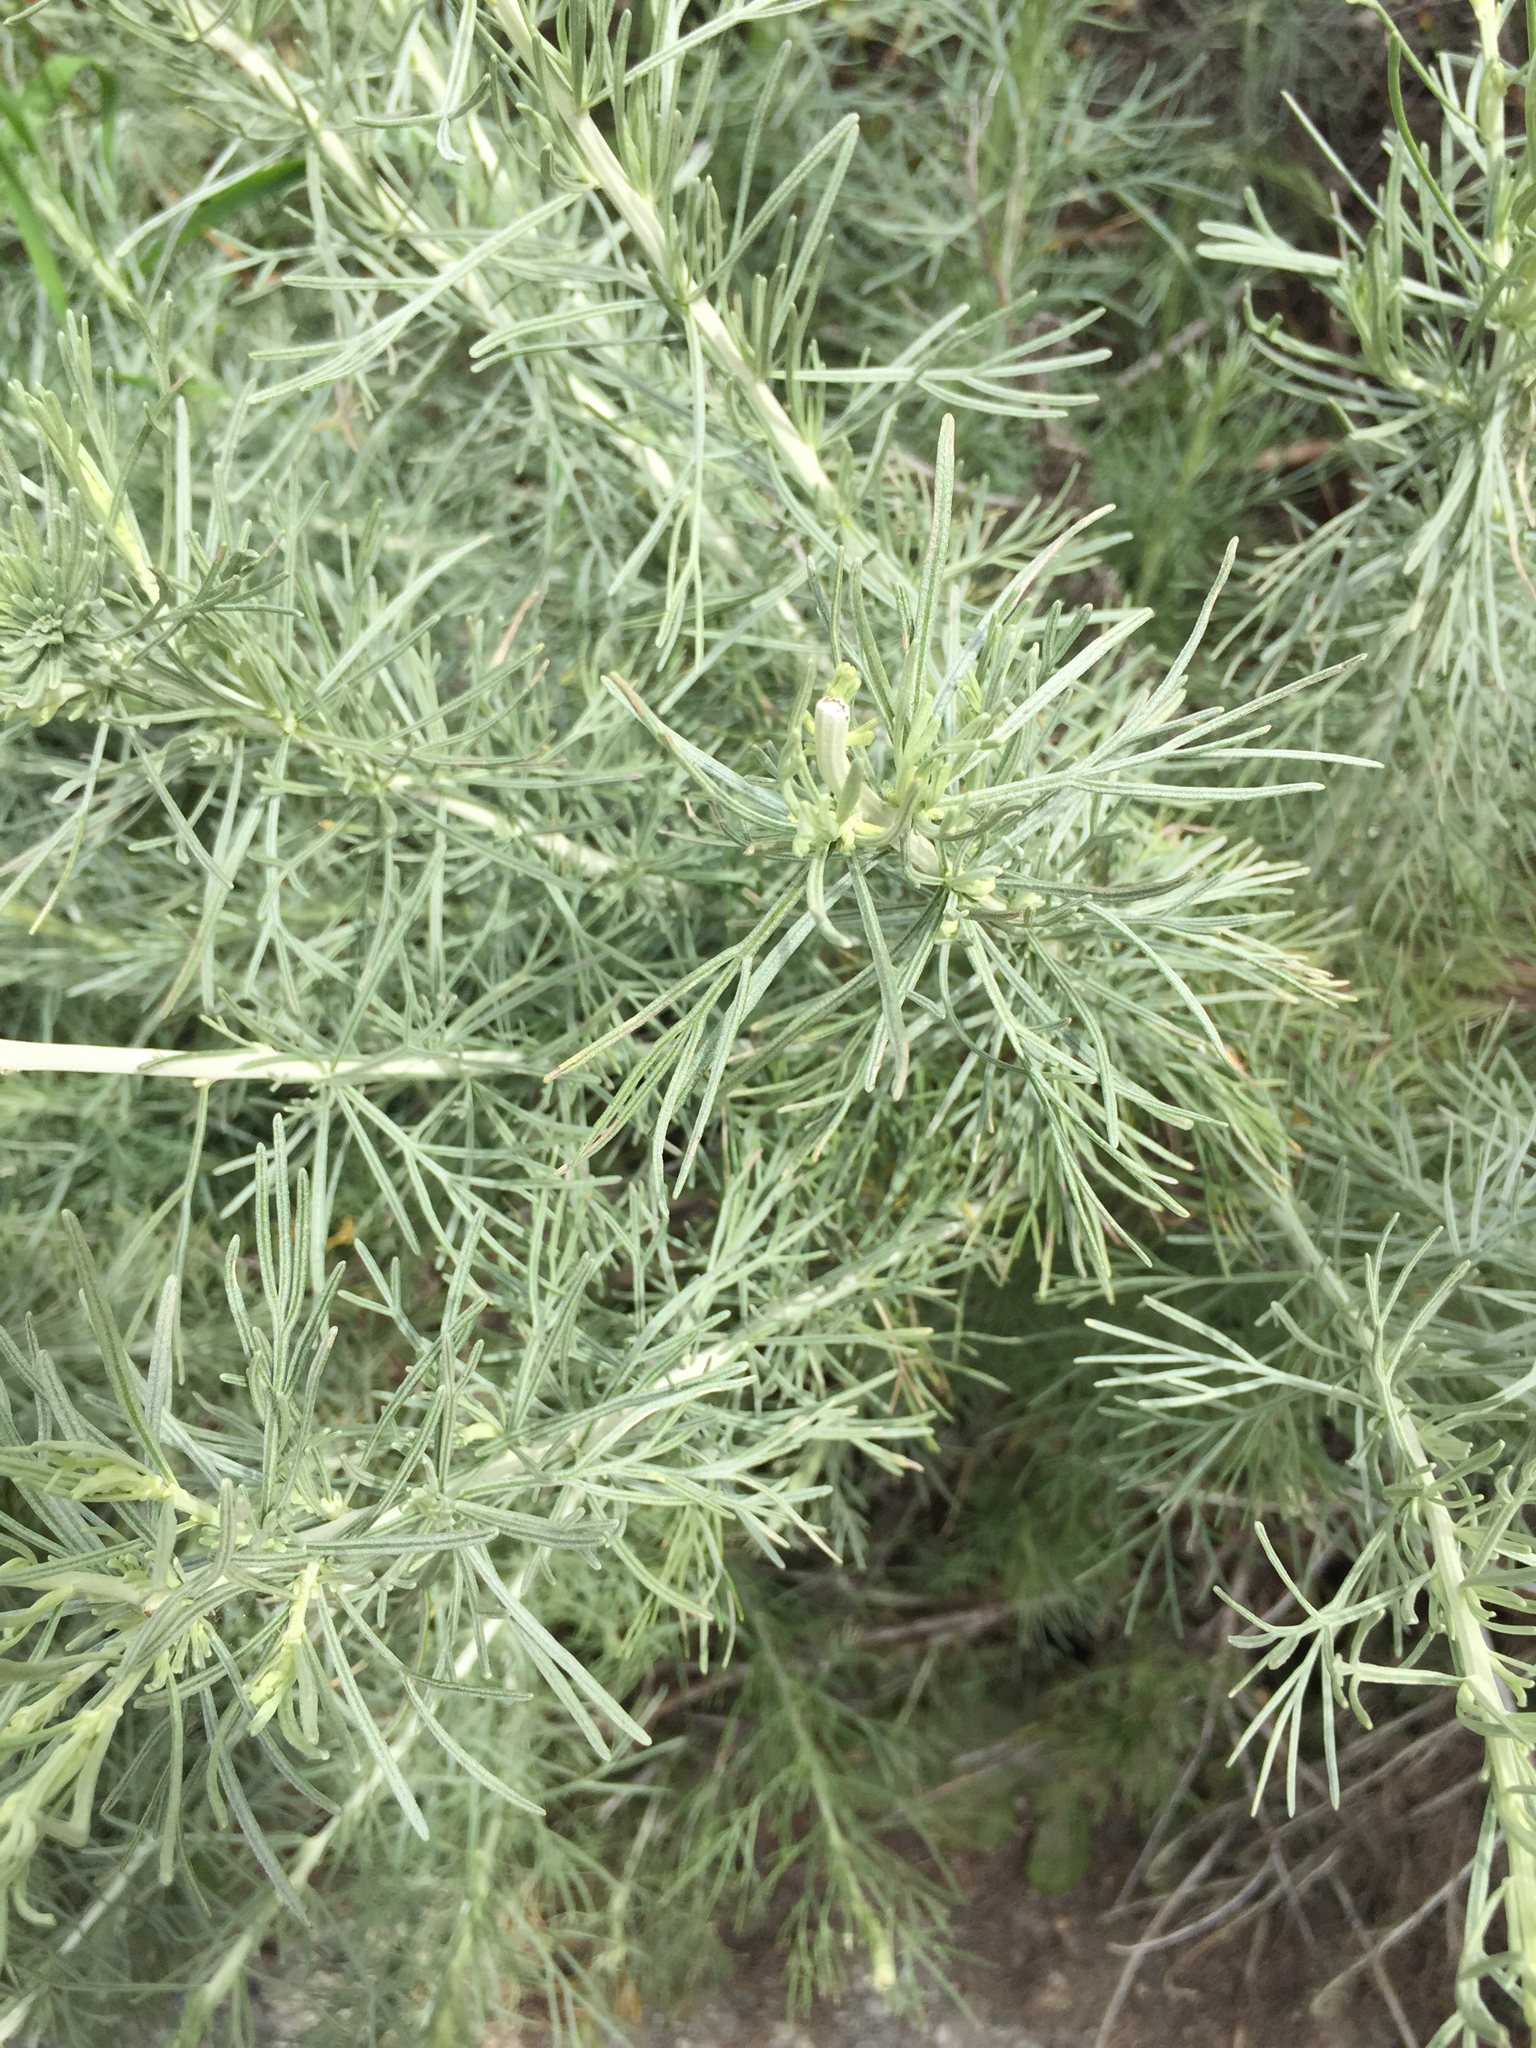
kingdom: Plantae
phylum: Tracheophyta
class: Magnoliopsida
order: Asterales
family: Asteraceae
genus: Artemisia
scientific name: Artemisia californica
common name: California sagebrush
